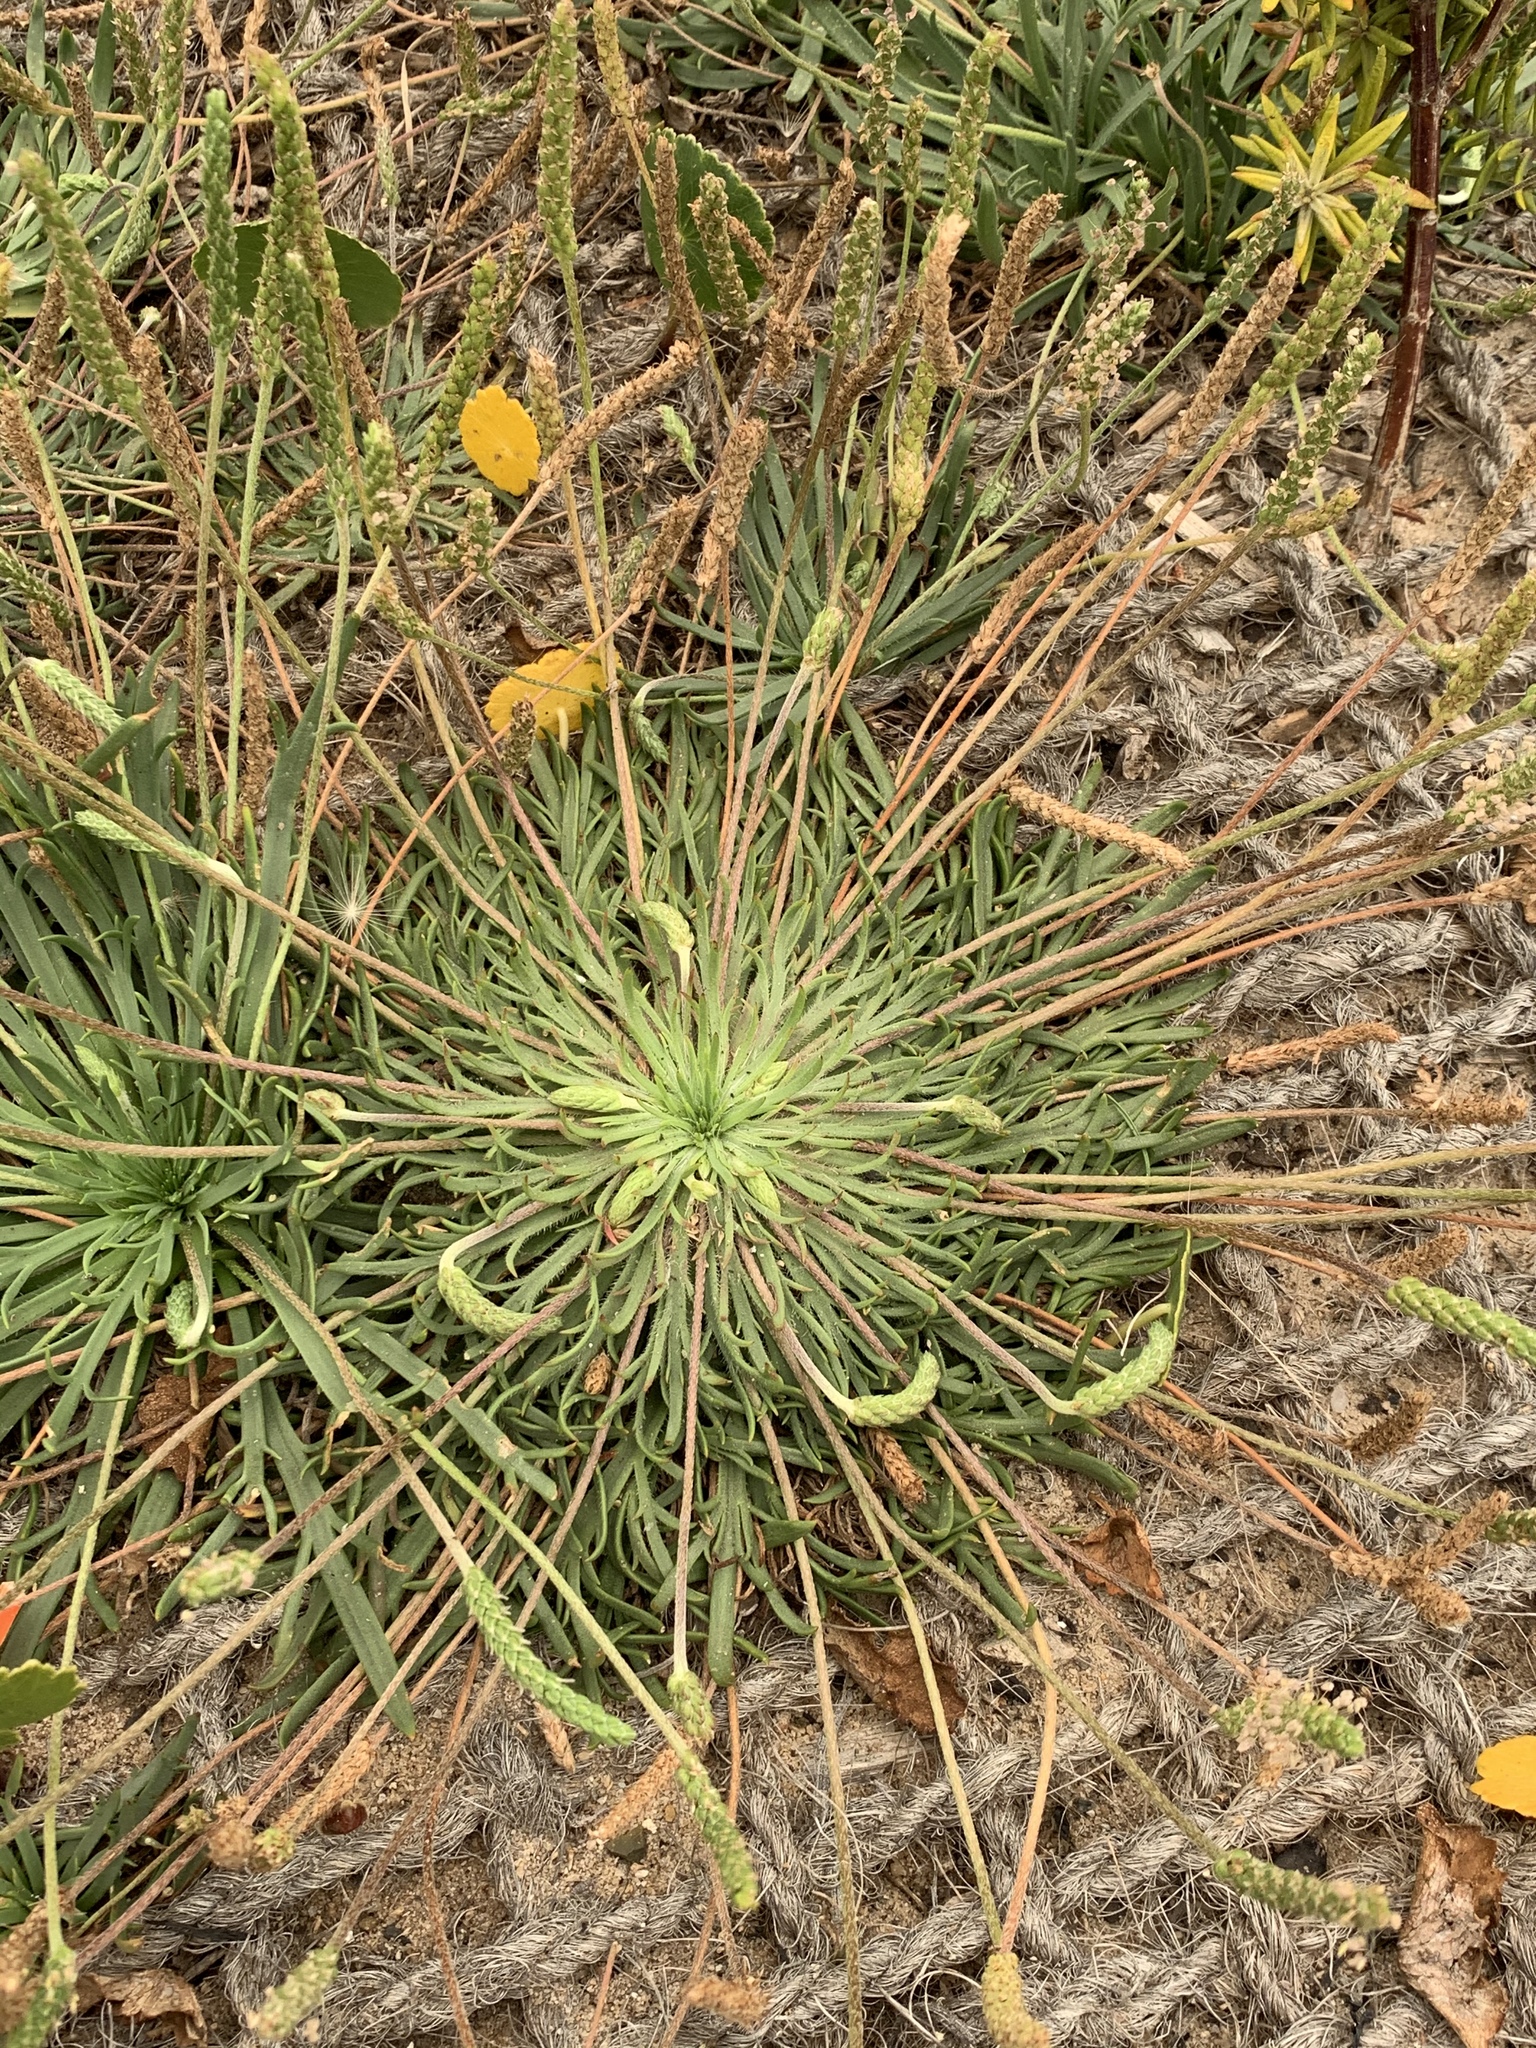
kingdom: Plantae
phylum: Tracheophyta
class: Magnoliopsida
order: Lamiales
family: Plantaginaceae
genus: Plantago
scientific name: Plantago coronopus
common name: Buck's-horn plantain
